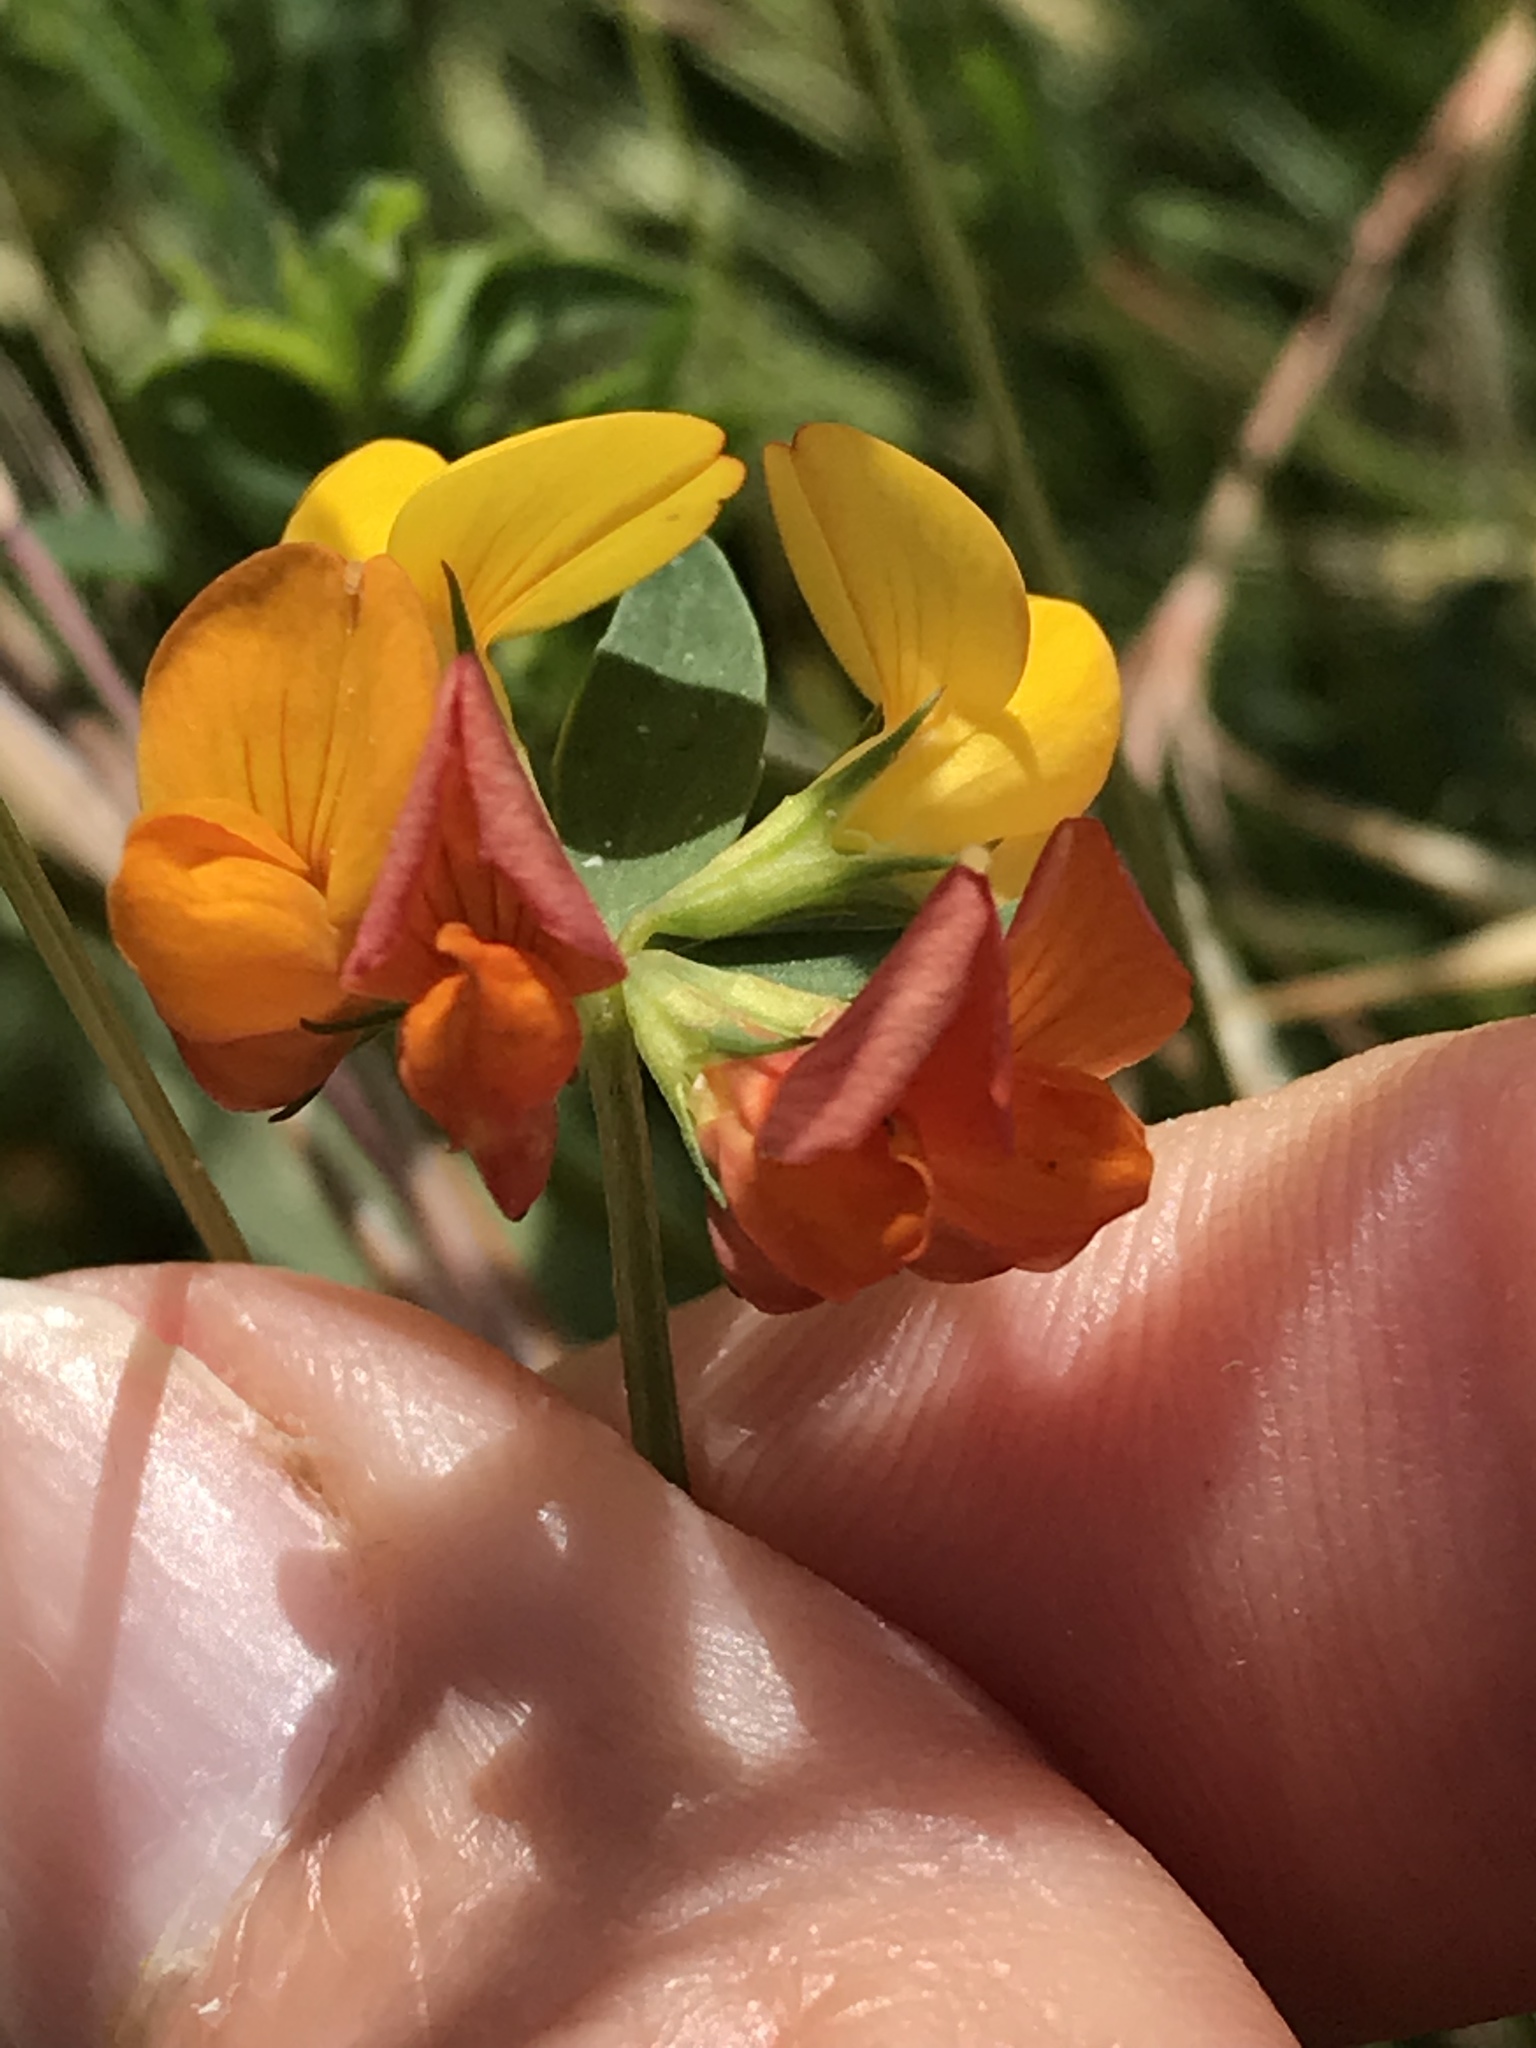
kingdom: Plantae
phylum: Tracheophyta
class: Magnoliopsida
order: Fabales
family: Fabaceae
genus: Lotus
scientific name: Lotus tenuis
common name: Narrow-leaved bird's-foot-trefoil
